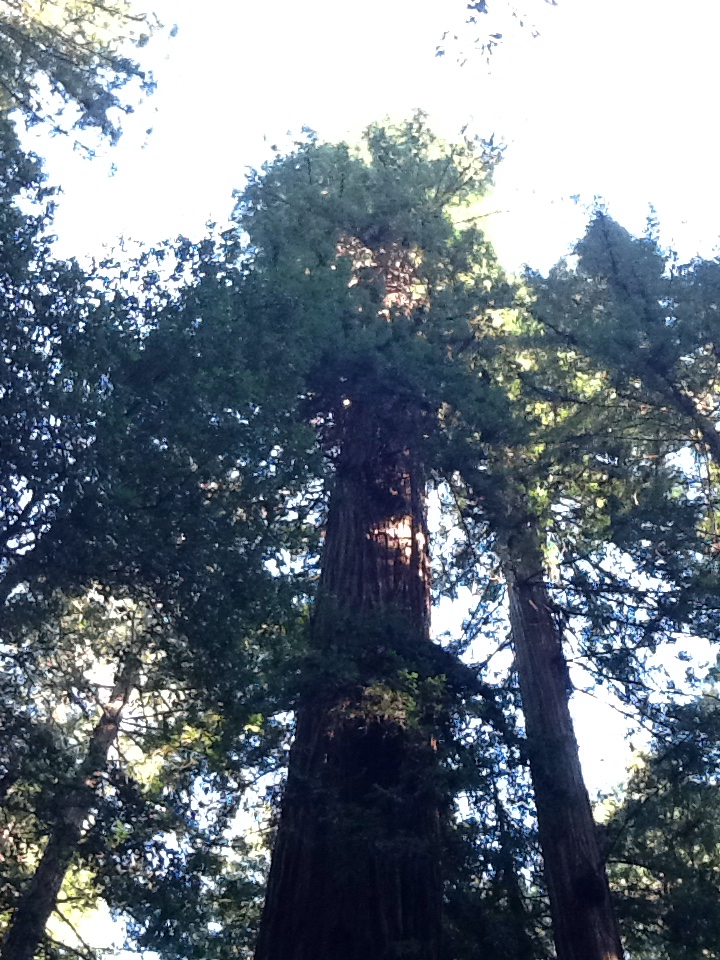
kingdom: Plantae
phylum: Tracheophyta
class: Pinopsida
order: Pinales
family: Cupressaceae
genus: Sequoia
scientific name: Sequoia sempervirens
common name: Coast redwood
